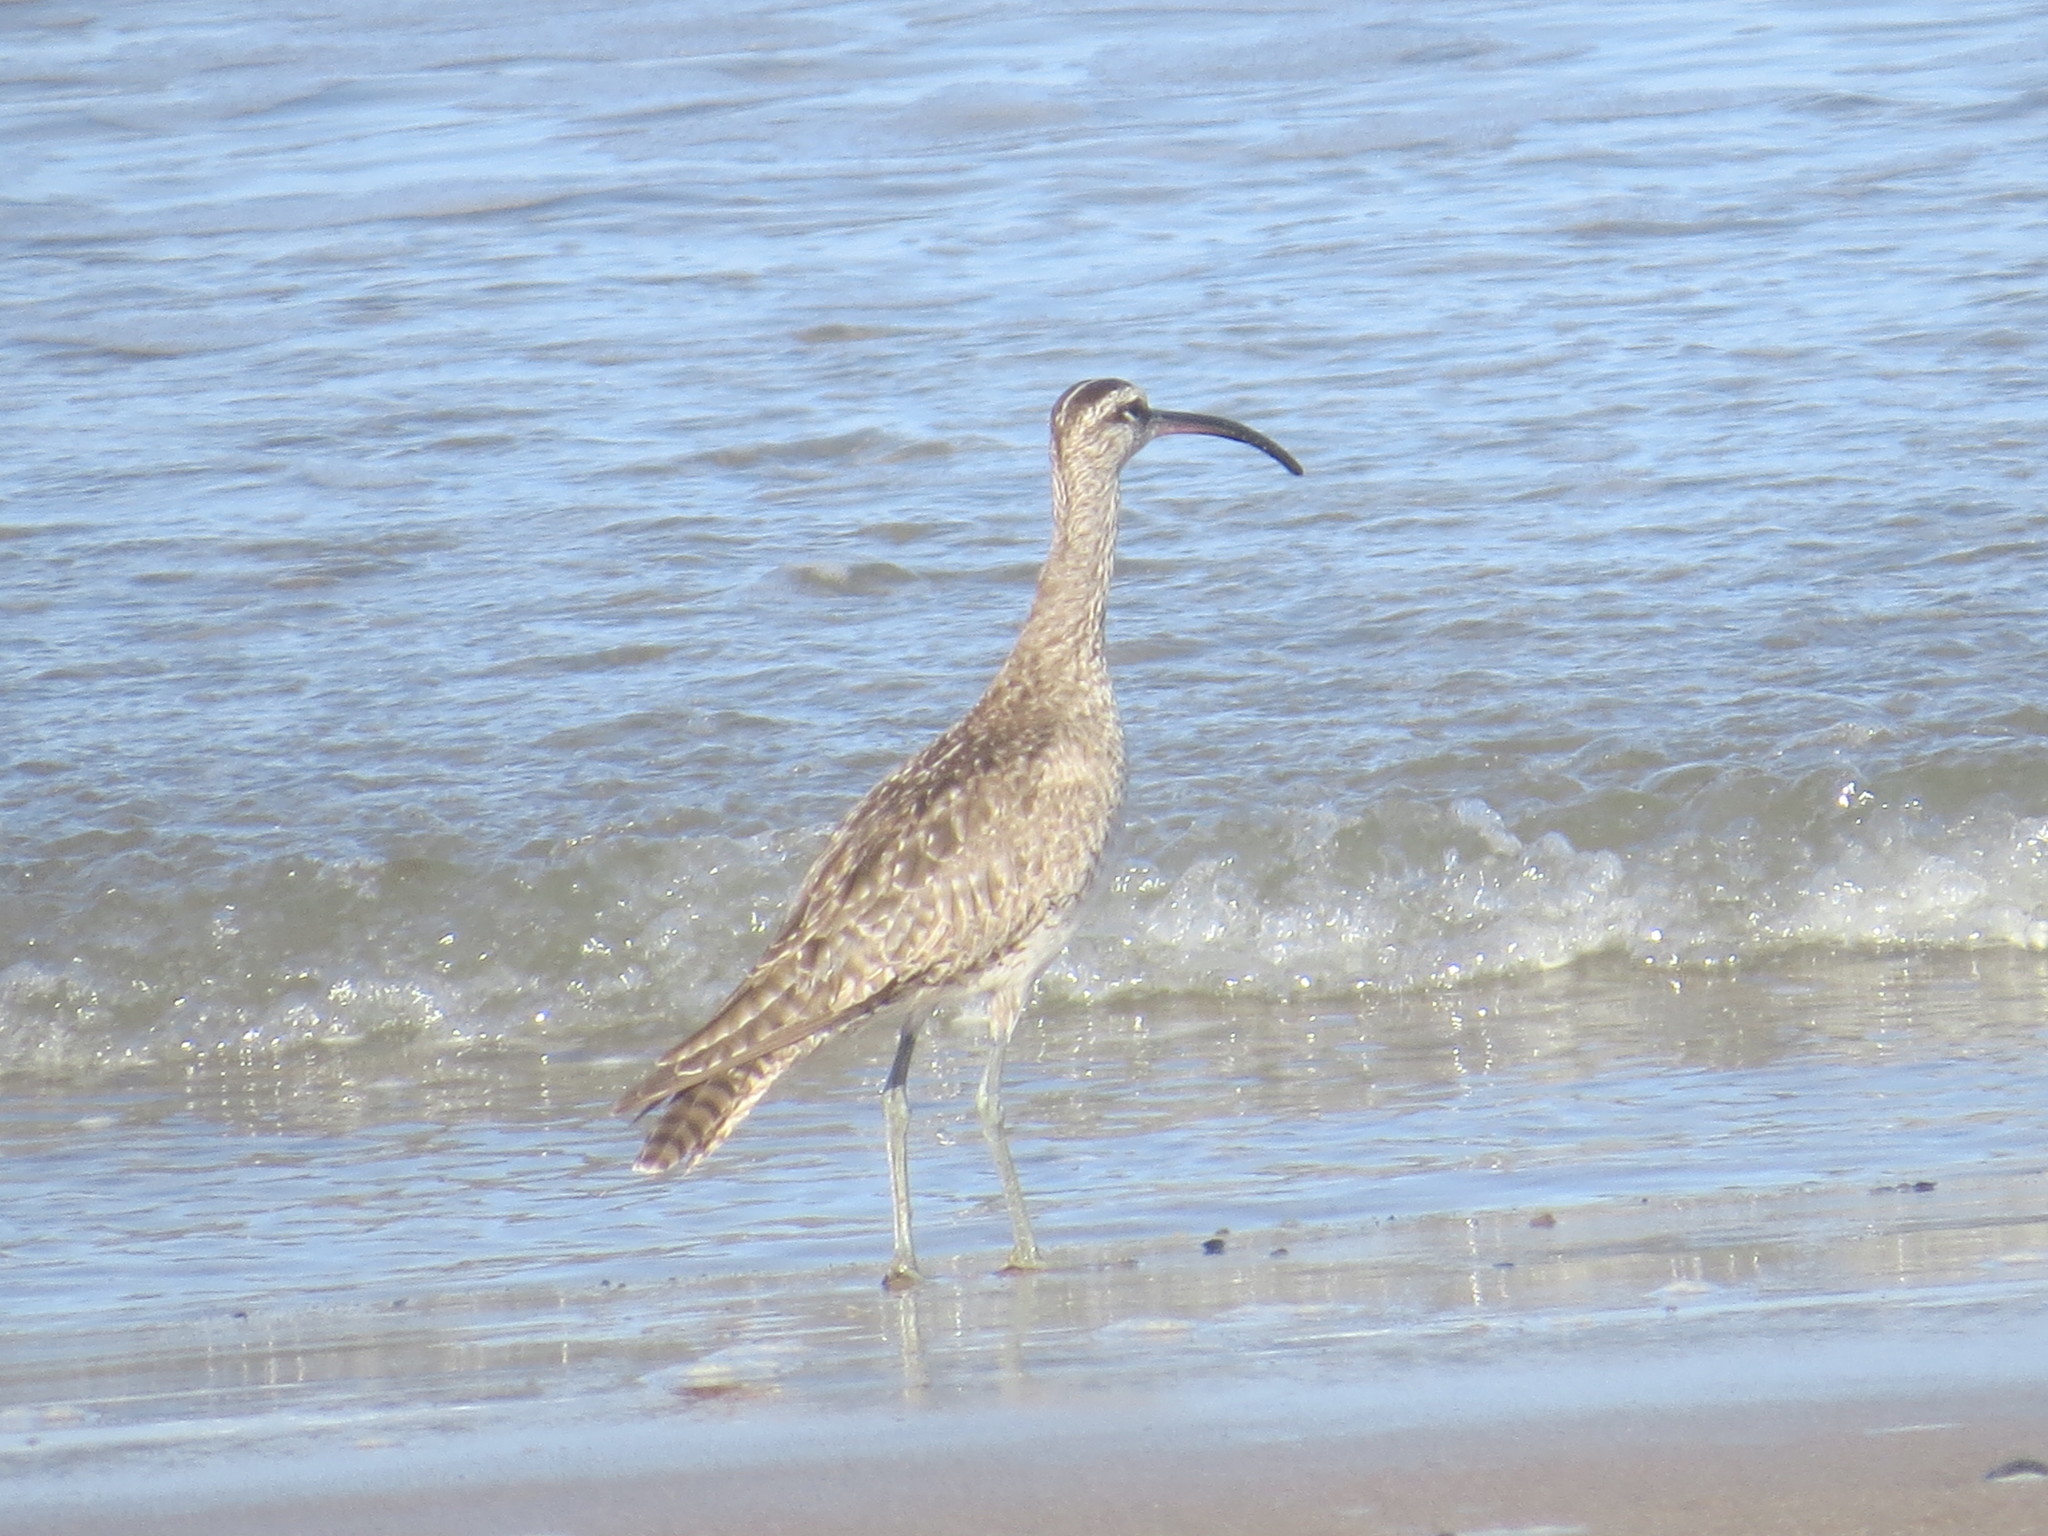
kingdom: Animalia
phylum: Chordata
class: Aves
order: Charadriiformes
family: Scolopacidae
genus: Numenius
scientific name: Numenius phaeopus
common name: Whimbrel
